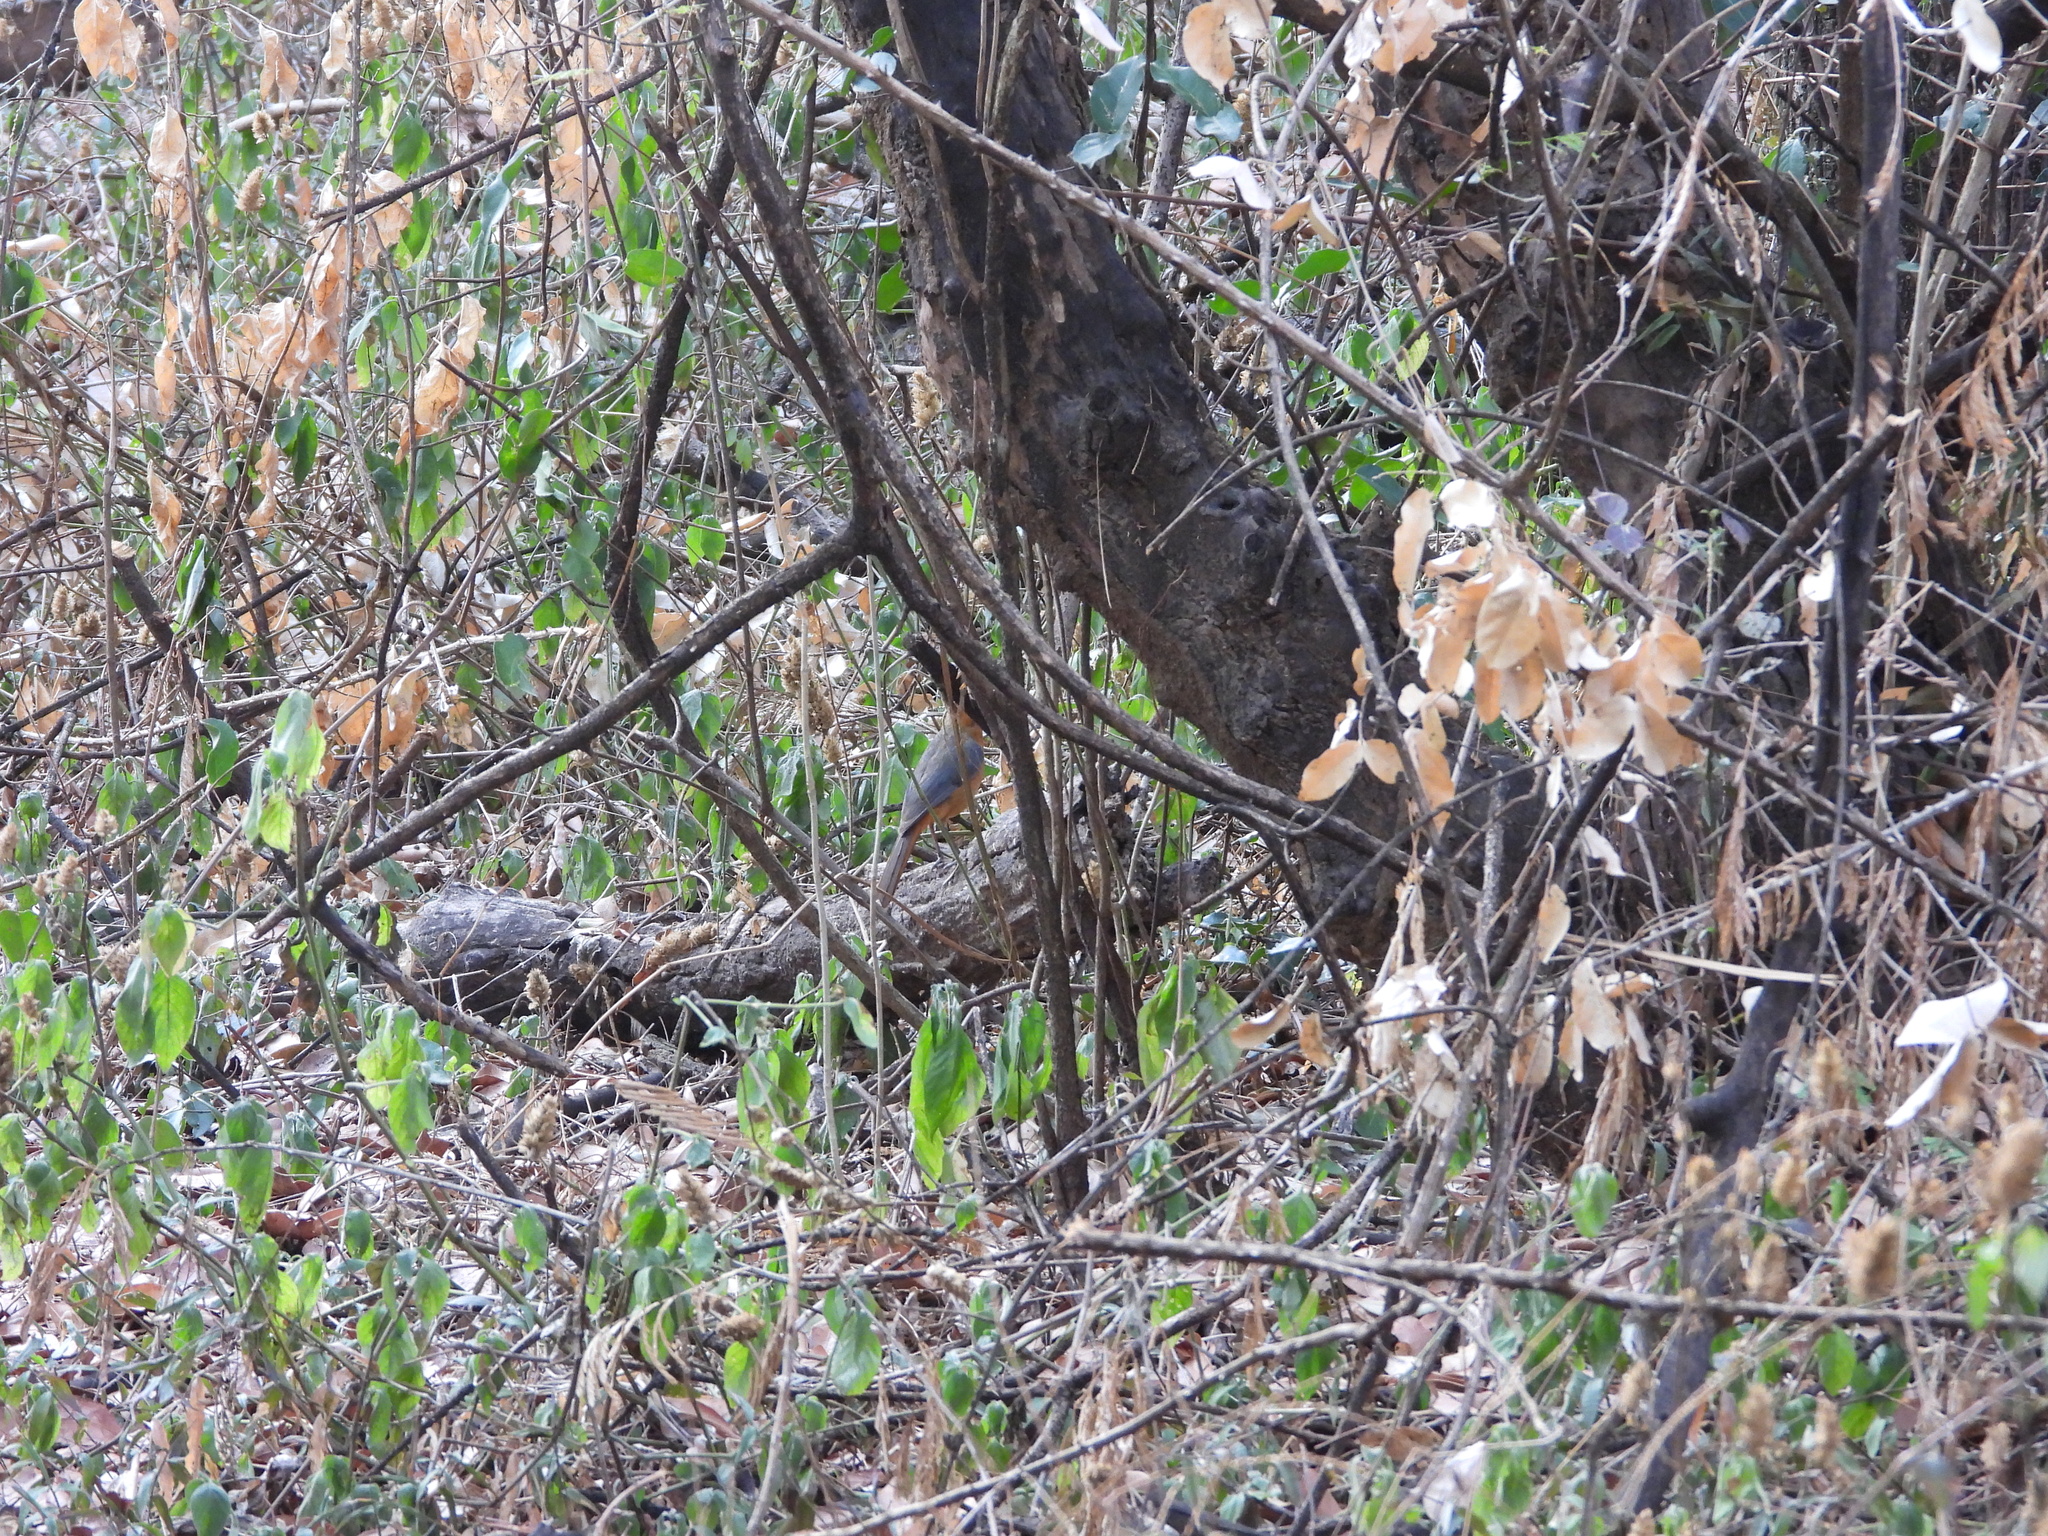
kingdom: Animalia
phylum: Chordata
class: Aves
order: Passeriformes
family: Muscicapidae
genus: Cossypha
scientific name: Cossypha heuglini
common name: White-browed robin-chat
